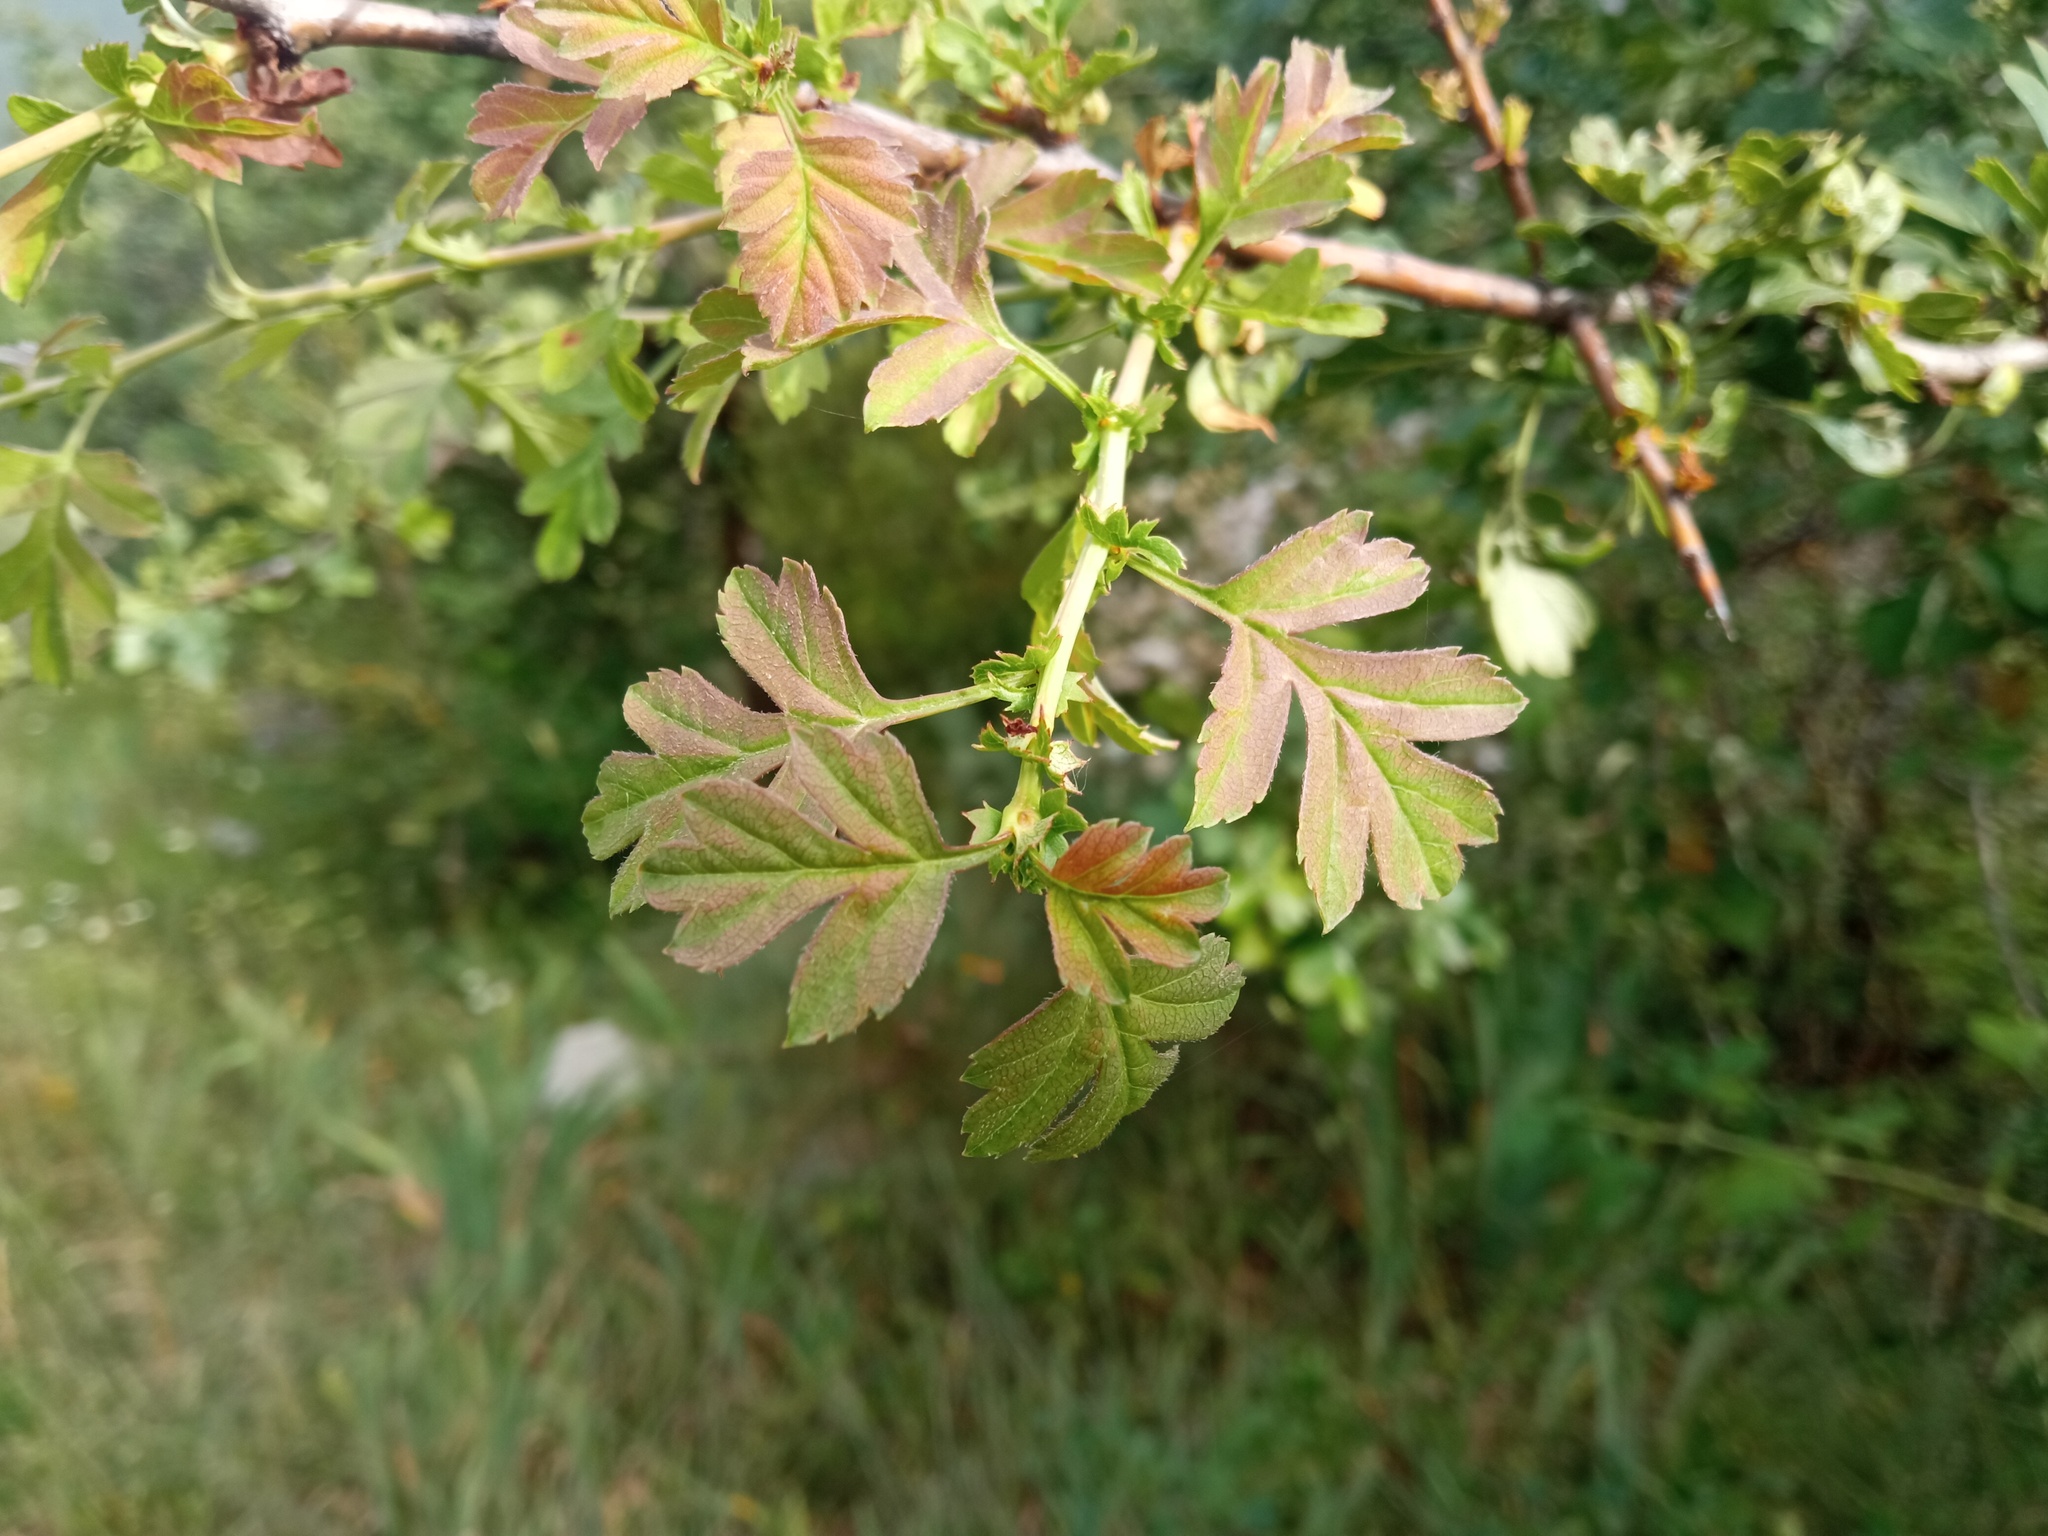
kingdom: Plantae
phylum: Tracheophyta
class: Magnoliopsida
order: Rosales
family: Rosaceae
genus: Crataegus
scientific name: Crataegus monogyna
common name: Hawthorn
